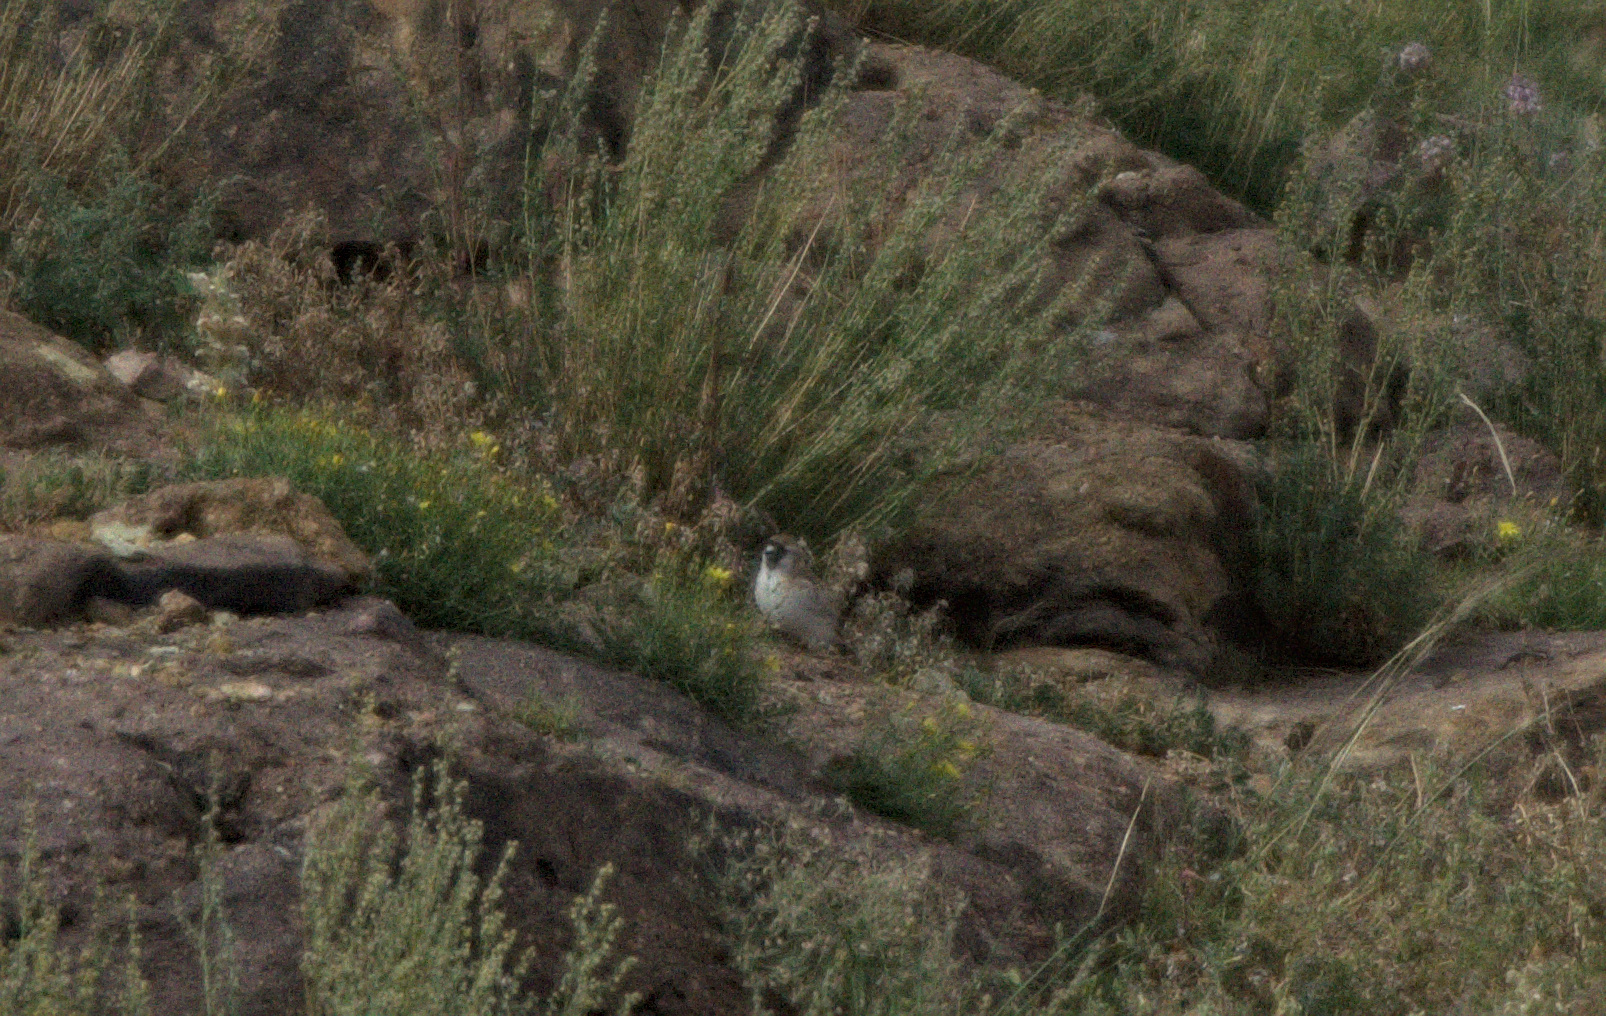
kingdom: Animalia
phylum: Chordata
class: Aves
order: Passeriformes
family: Passeridae
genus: Pyrgilauda
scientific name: Pyrgilauda davidiana
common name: Pere david's snowfinch
